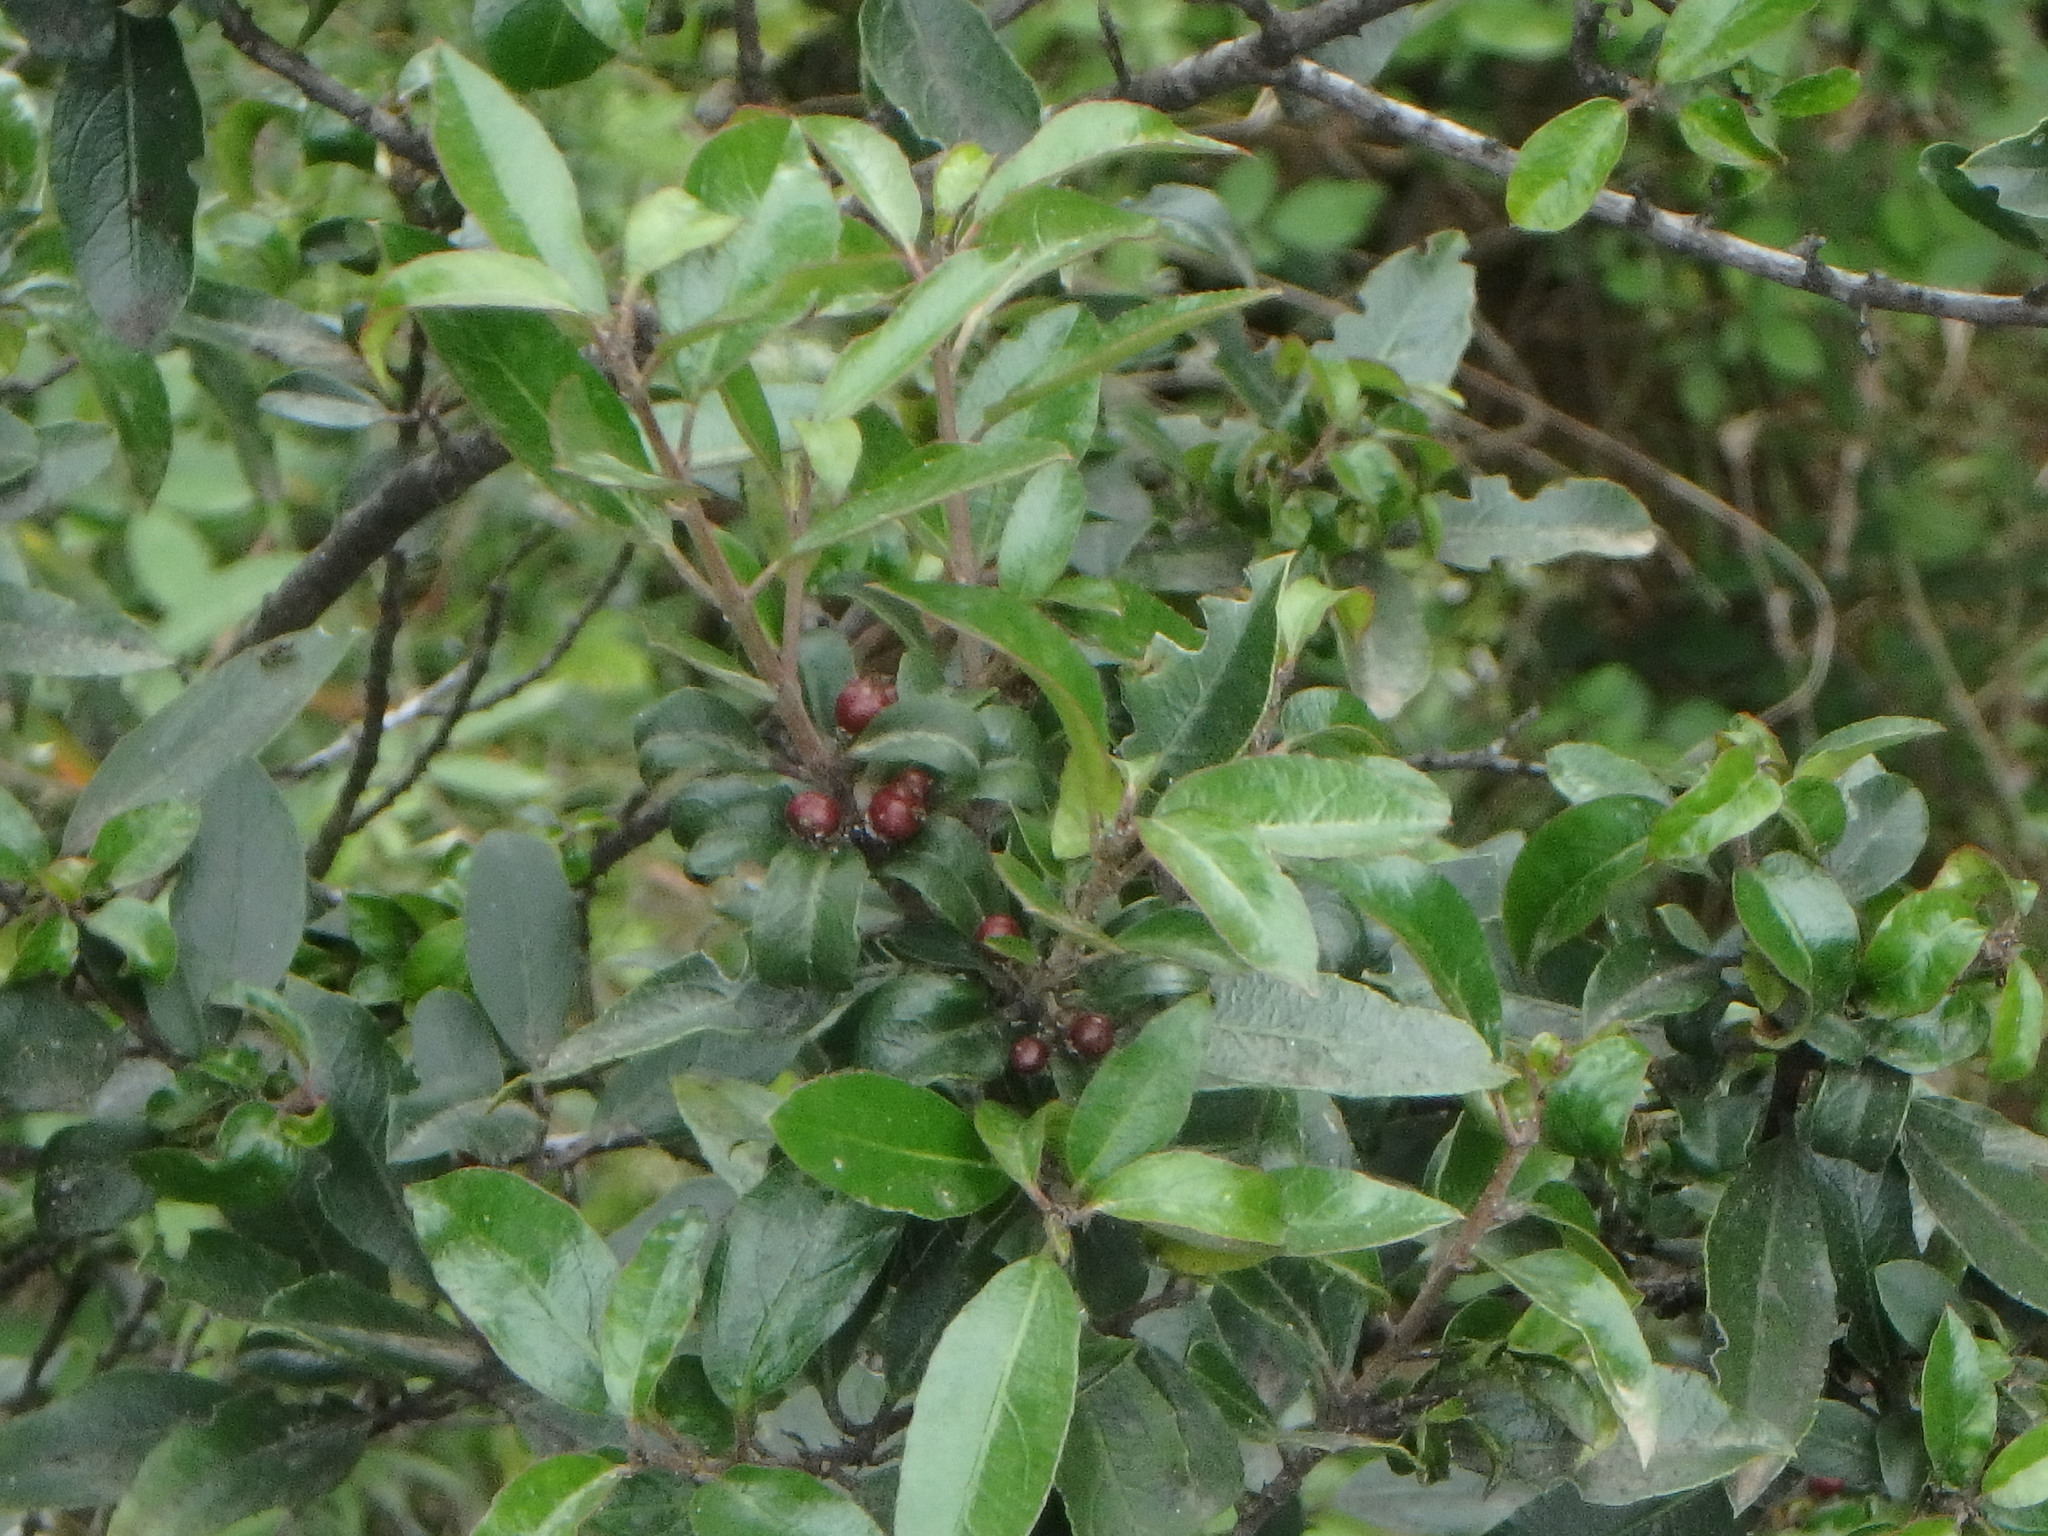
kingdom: Plantae
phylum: Tracheophyta
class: Magnoliopsida
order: Rosales
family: Rhamnaceae
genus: Rhamnus
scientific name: Rhamnus alaternus
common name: Mediterranean buckthorn
